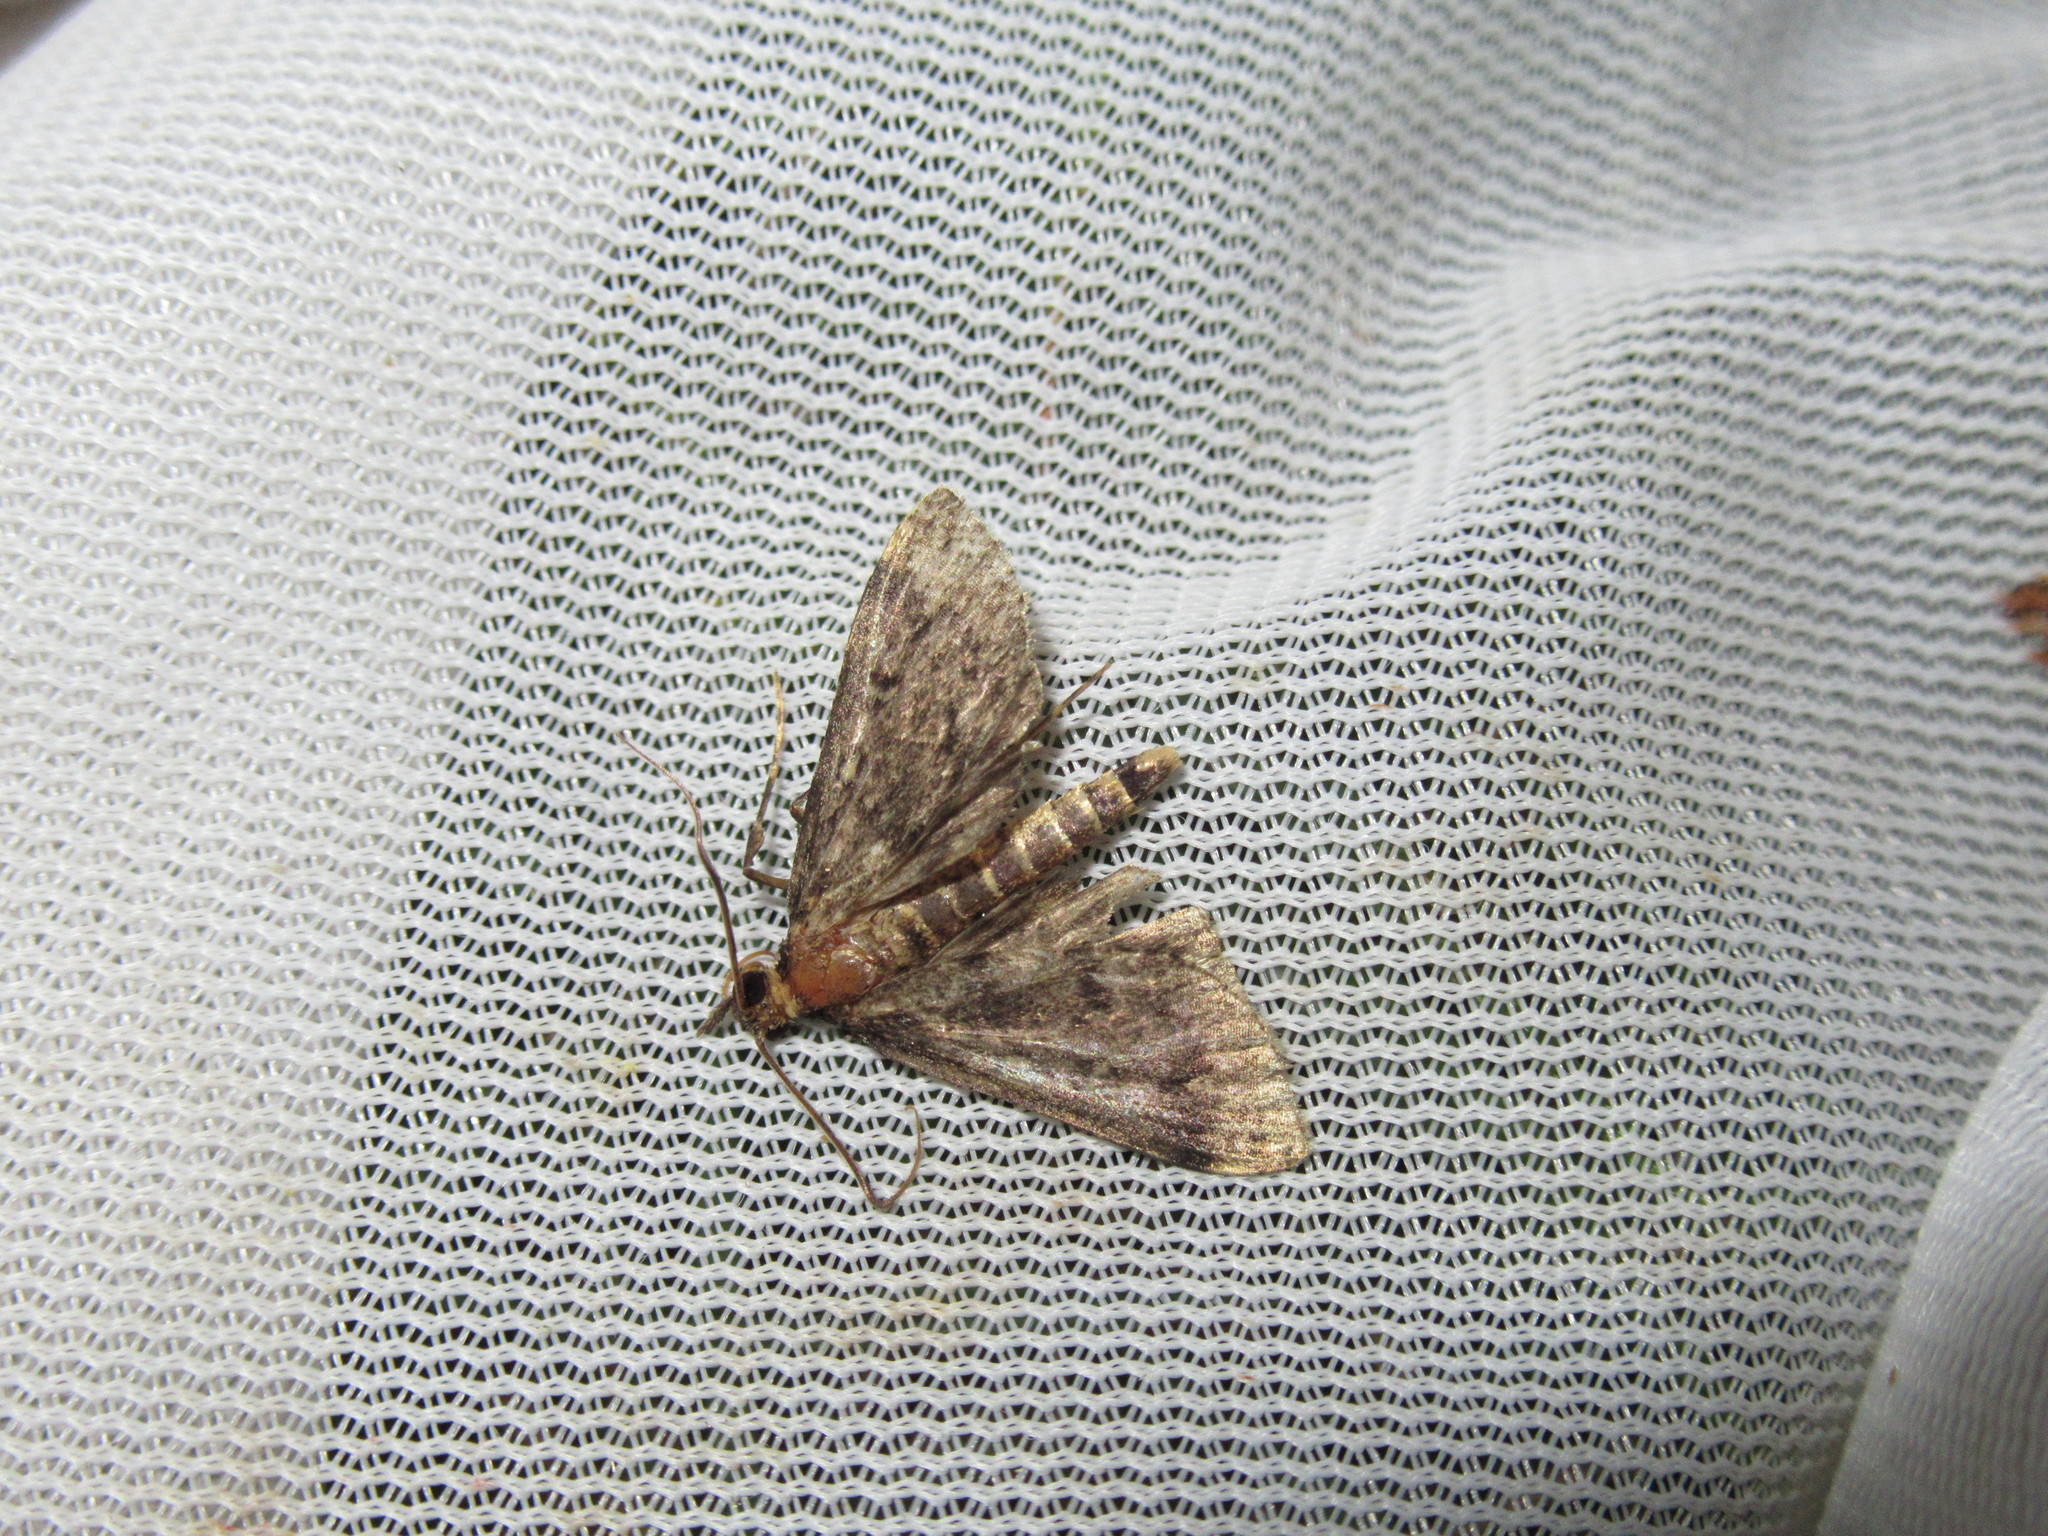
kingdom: Animalia
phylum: Arthropoda
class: Insecta
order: Lepidoptera
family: Crambidae
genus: Loxostege
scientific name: Loxostege Proternia philocapna
